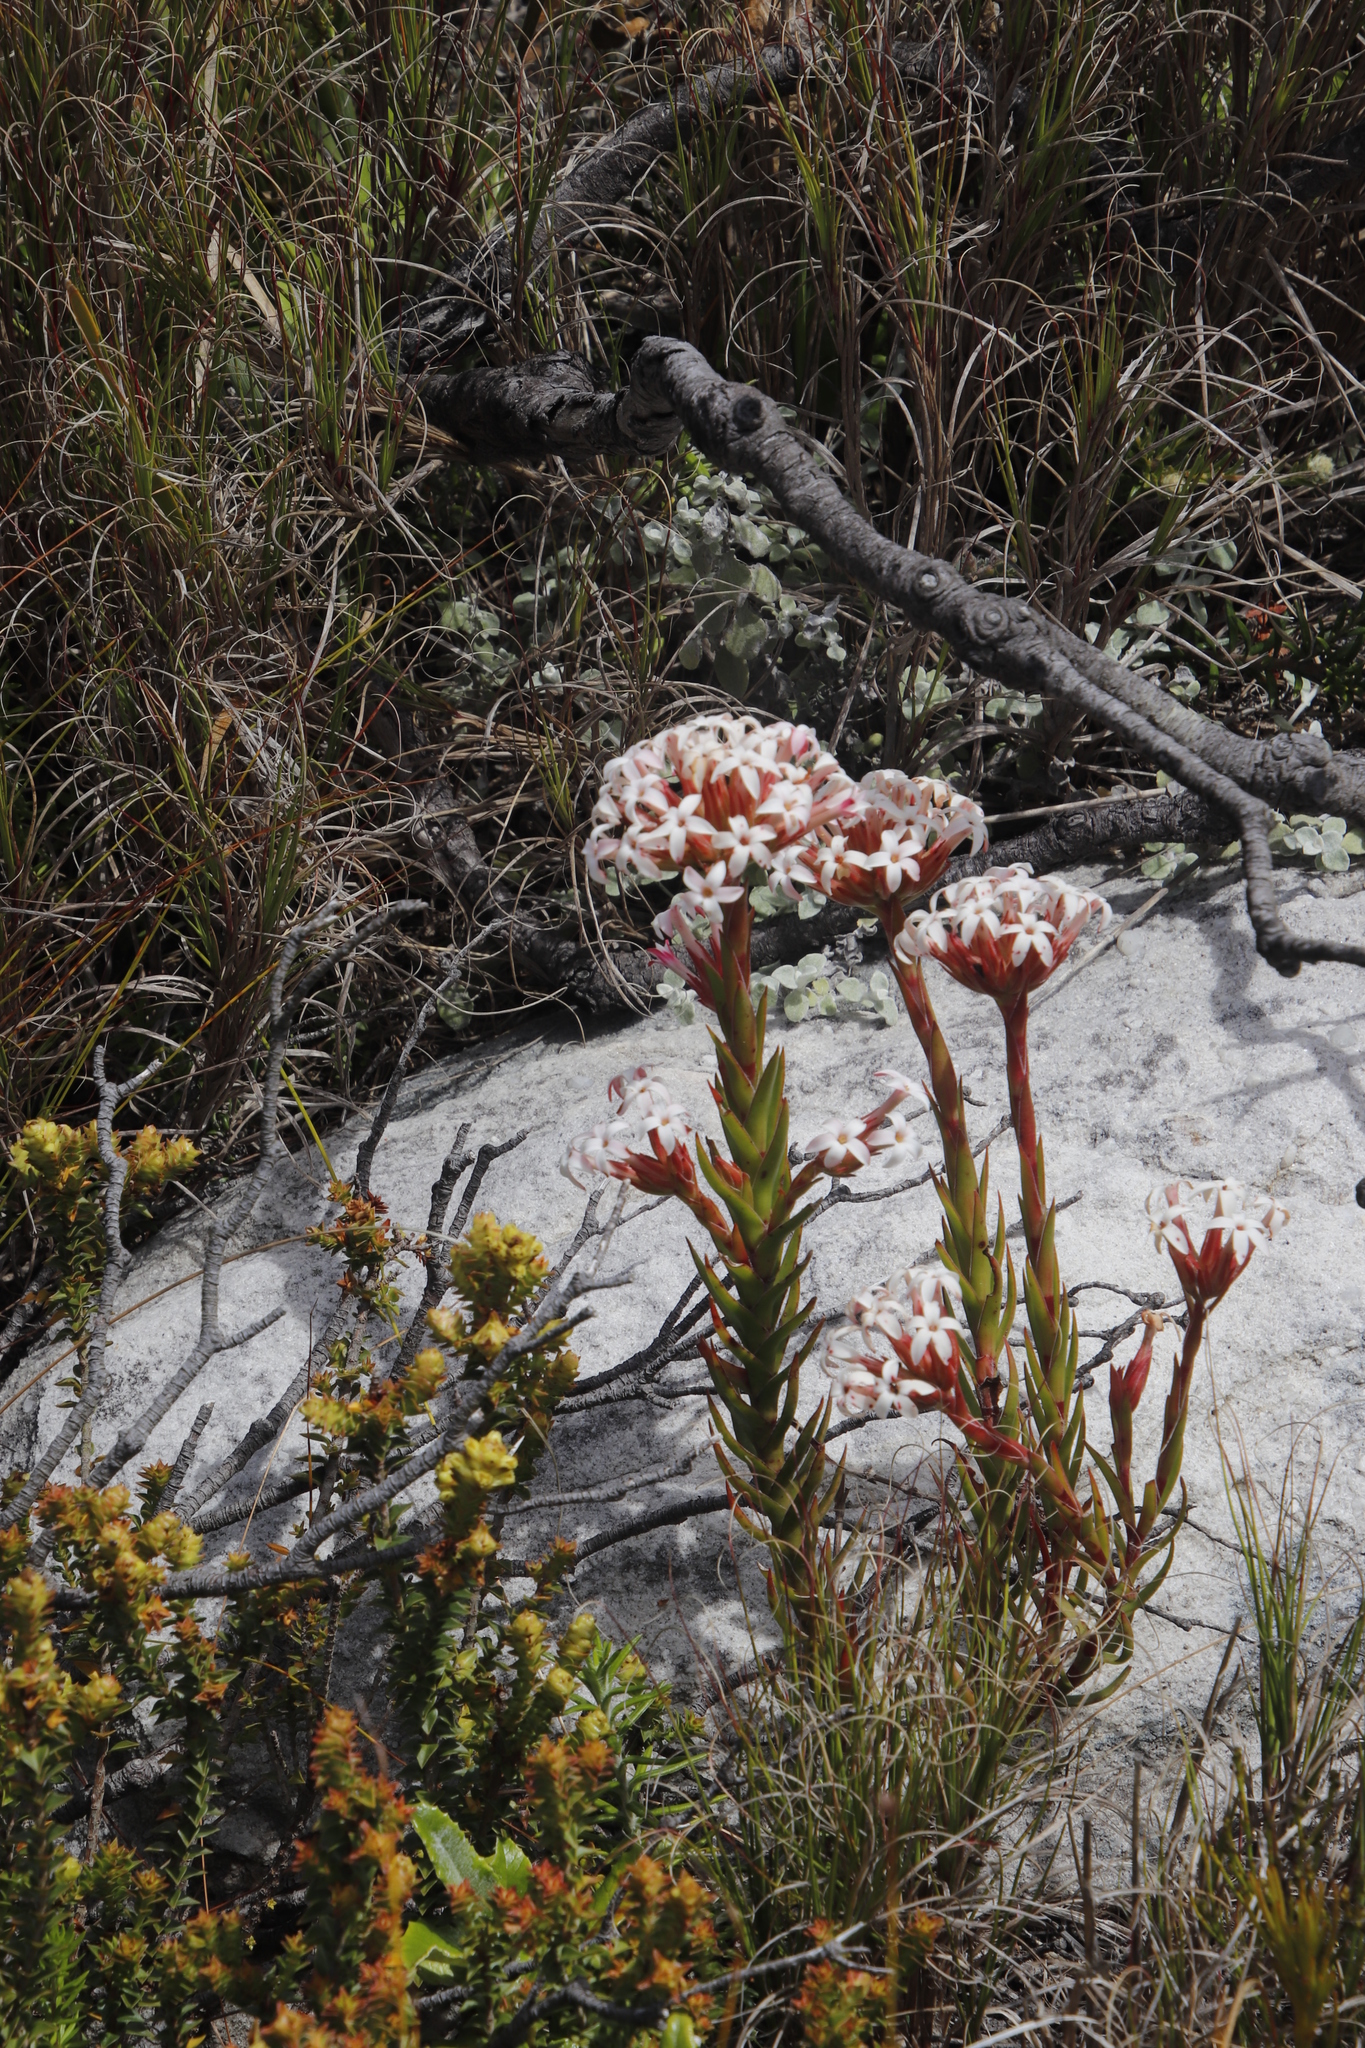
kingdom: Plantae
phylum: Tracheophyta
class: Magnoliopsida
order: Saxifragales
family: Crassulaceae
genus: Crassula
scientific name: Crassula fascicularis
